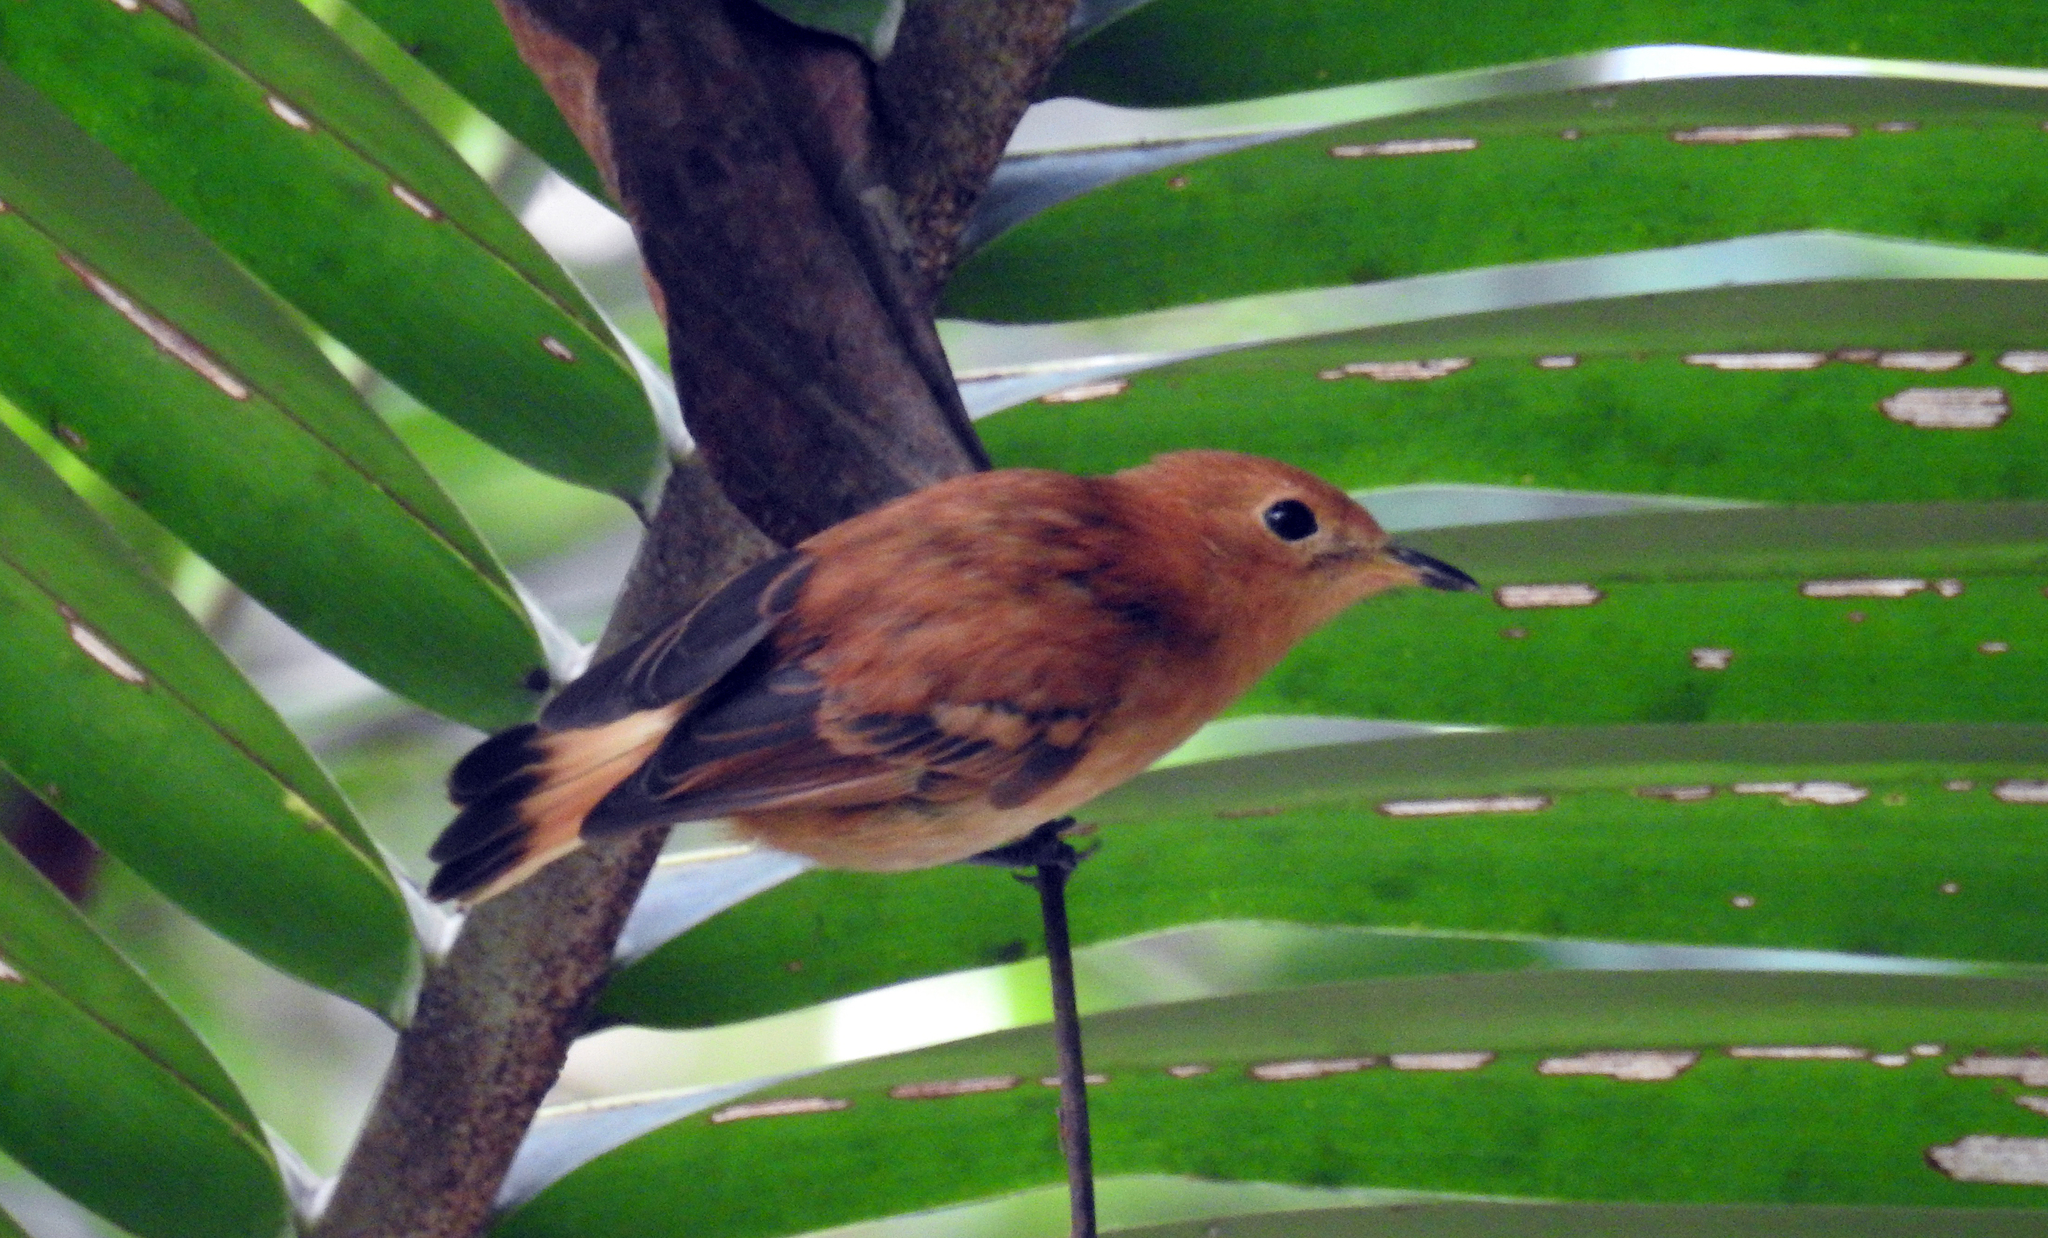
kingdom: Animalia
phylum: Chordata
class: Aves
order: Passeriformes
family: Monarchidae
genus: Pomarea
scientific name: Pomarea dimidiata
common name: Rarotonga monarch
